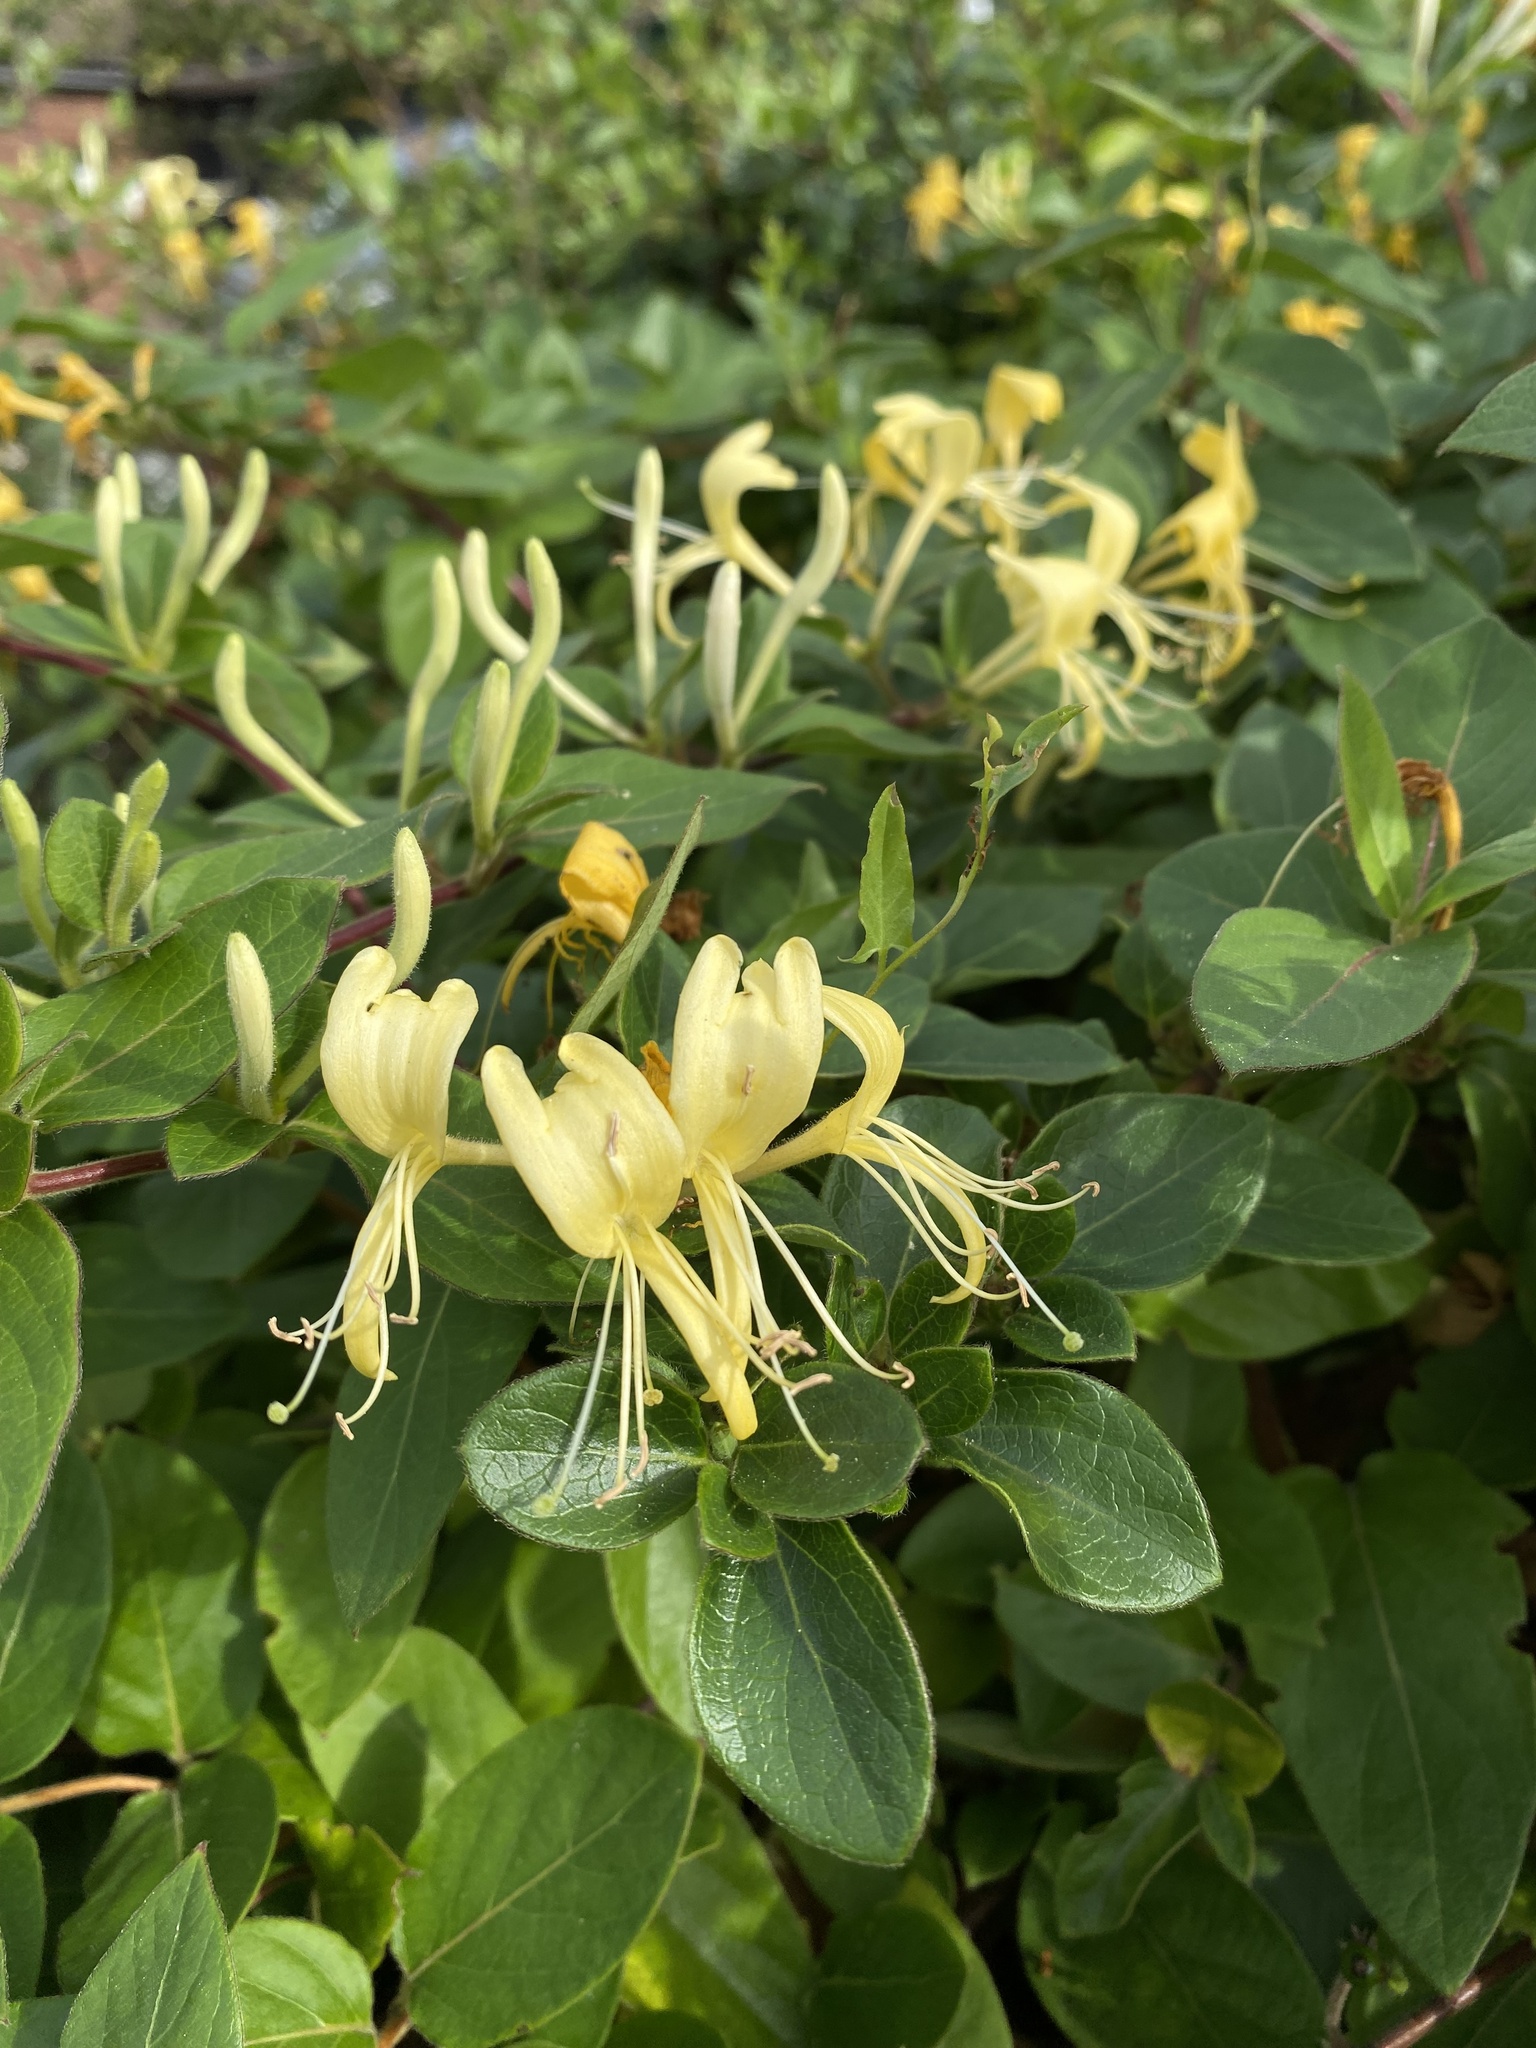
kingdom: Plantae
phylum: Tracheophyta
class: Magnoliopsida
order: Dipsacales
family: Caprifoliaceae
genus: Lonicera
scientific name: Lonicera japonica
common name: Japanese honeysuckle
